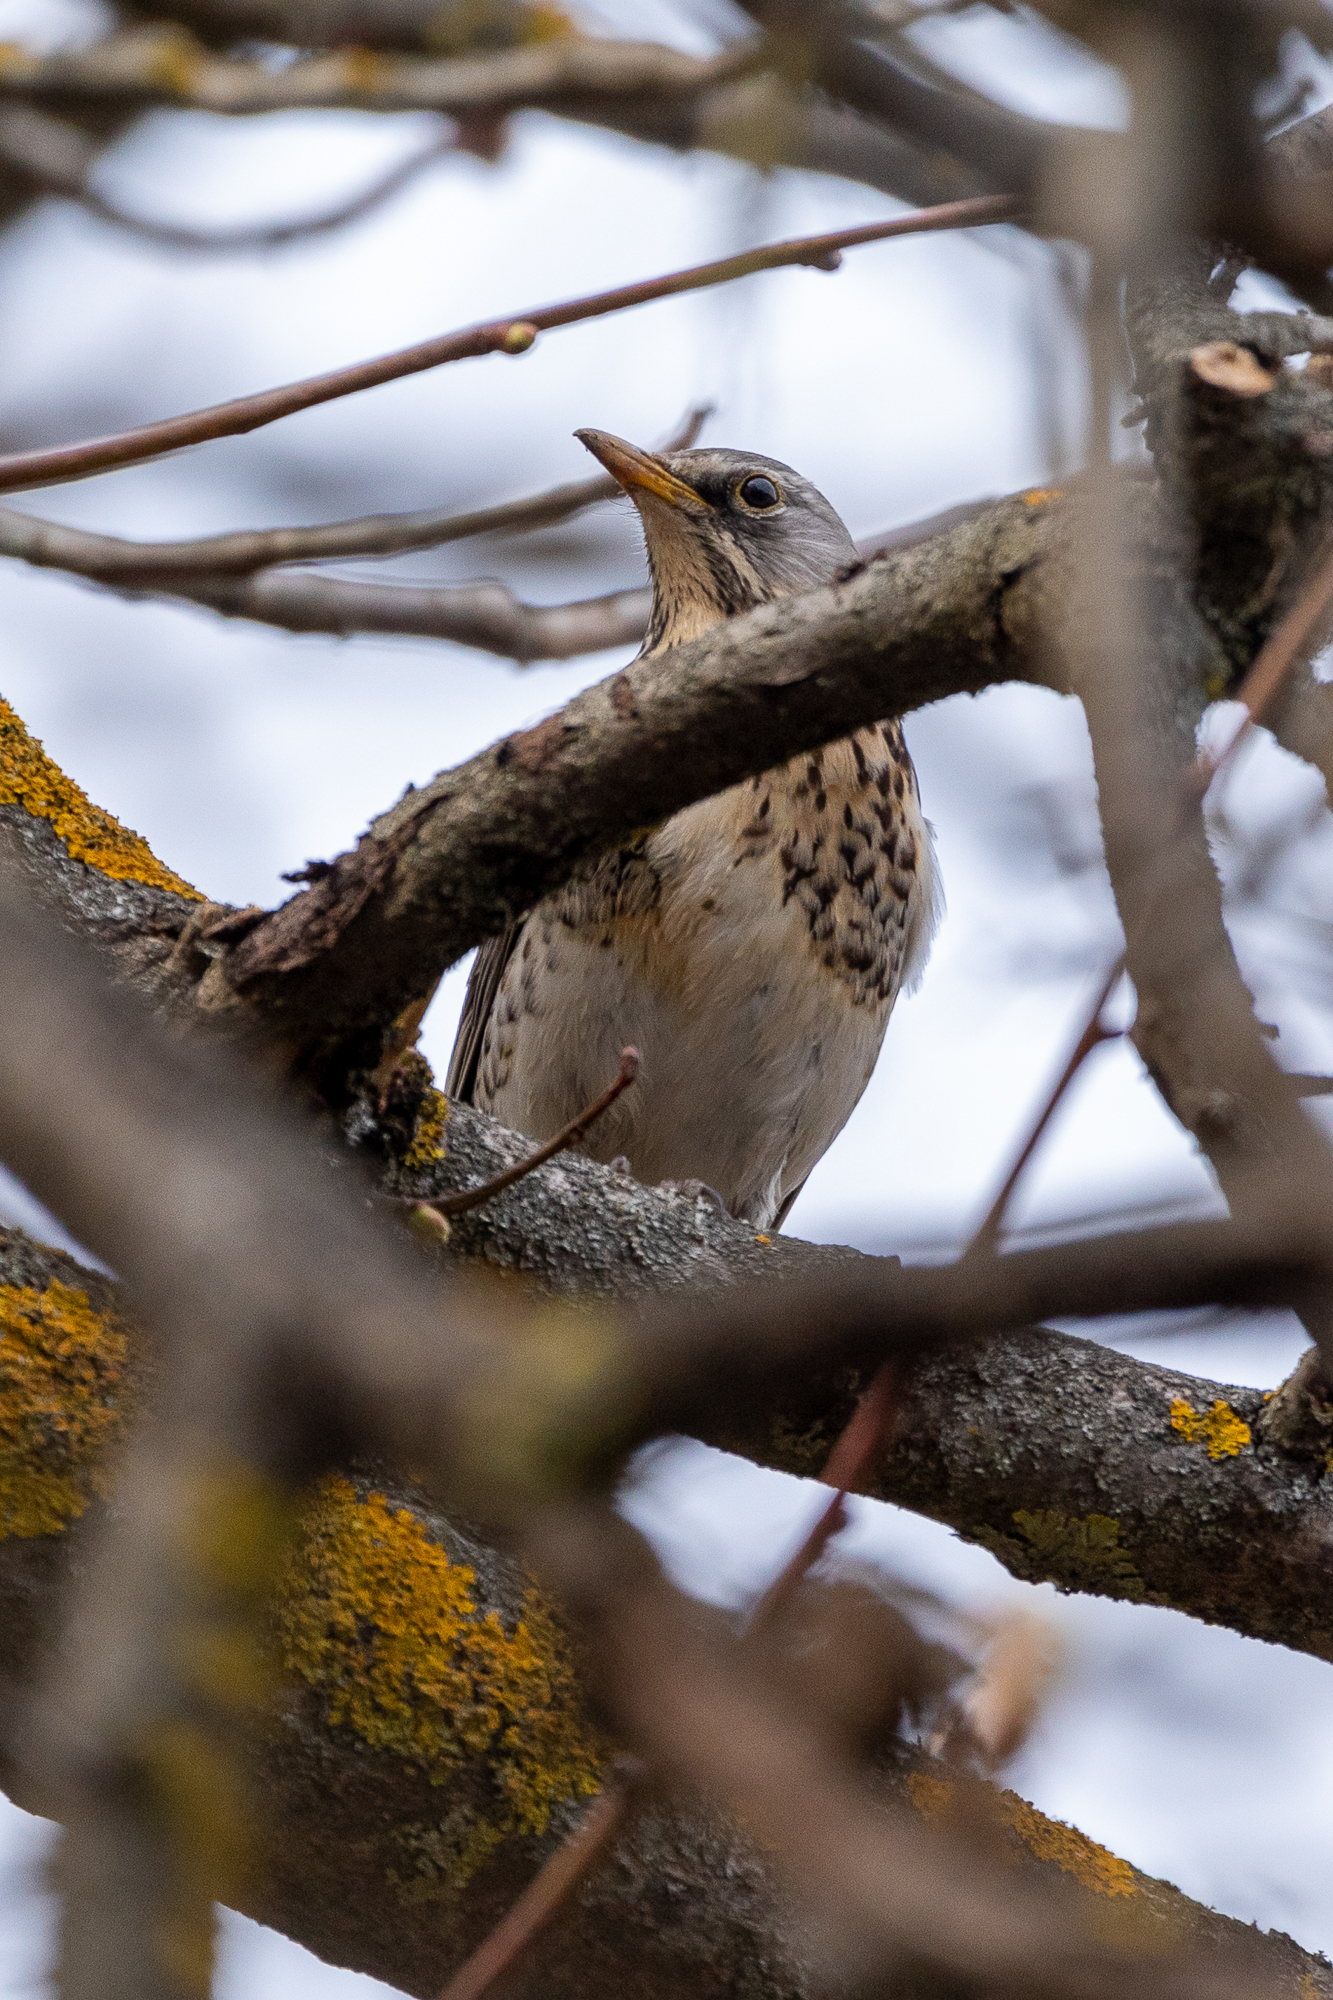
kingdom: Animalia
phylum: Chordata
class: Aves
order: Passeriformes
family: Turdidae
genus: Turdus
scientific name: Turdus pilaris
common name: Fieldfare
